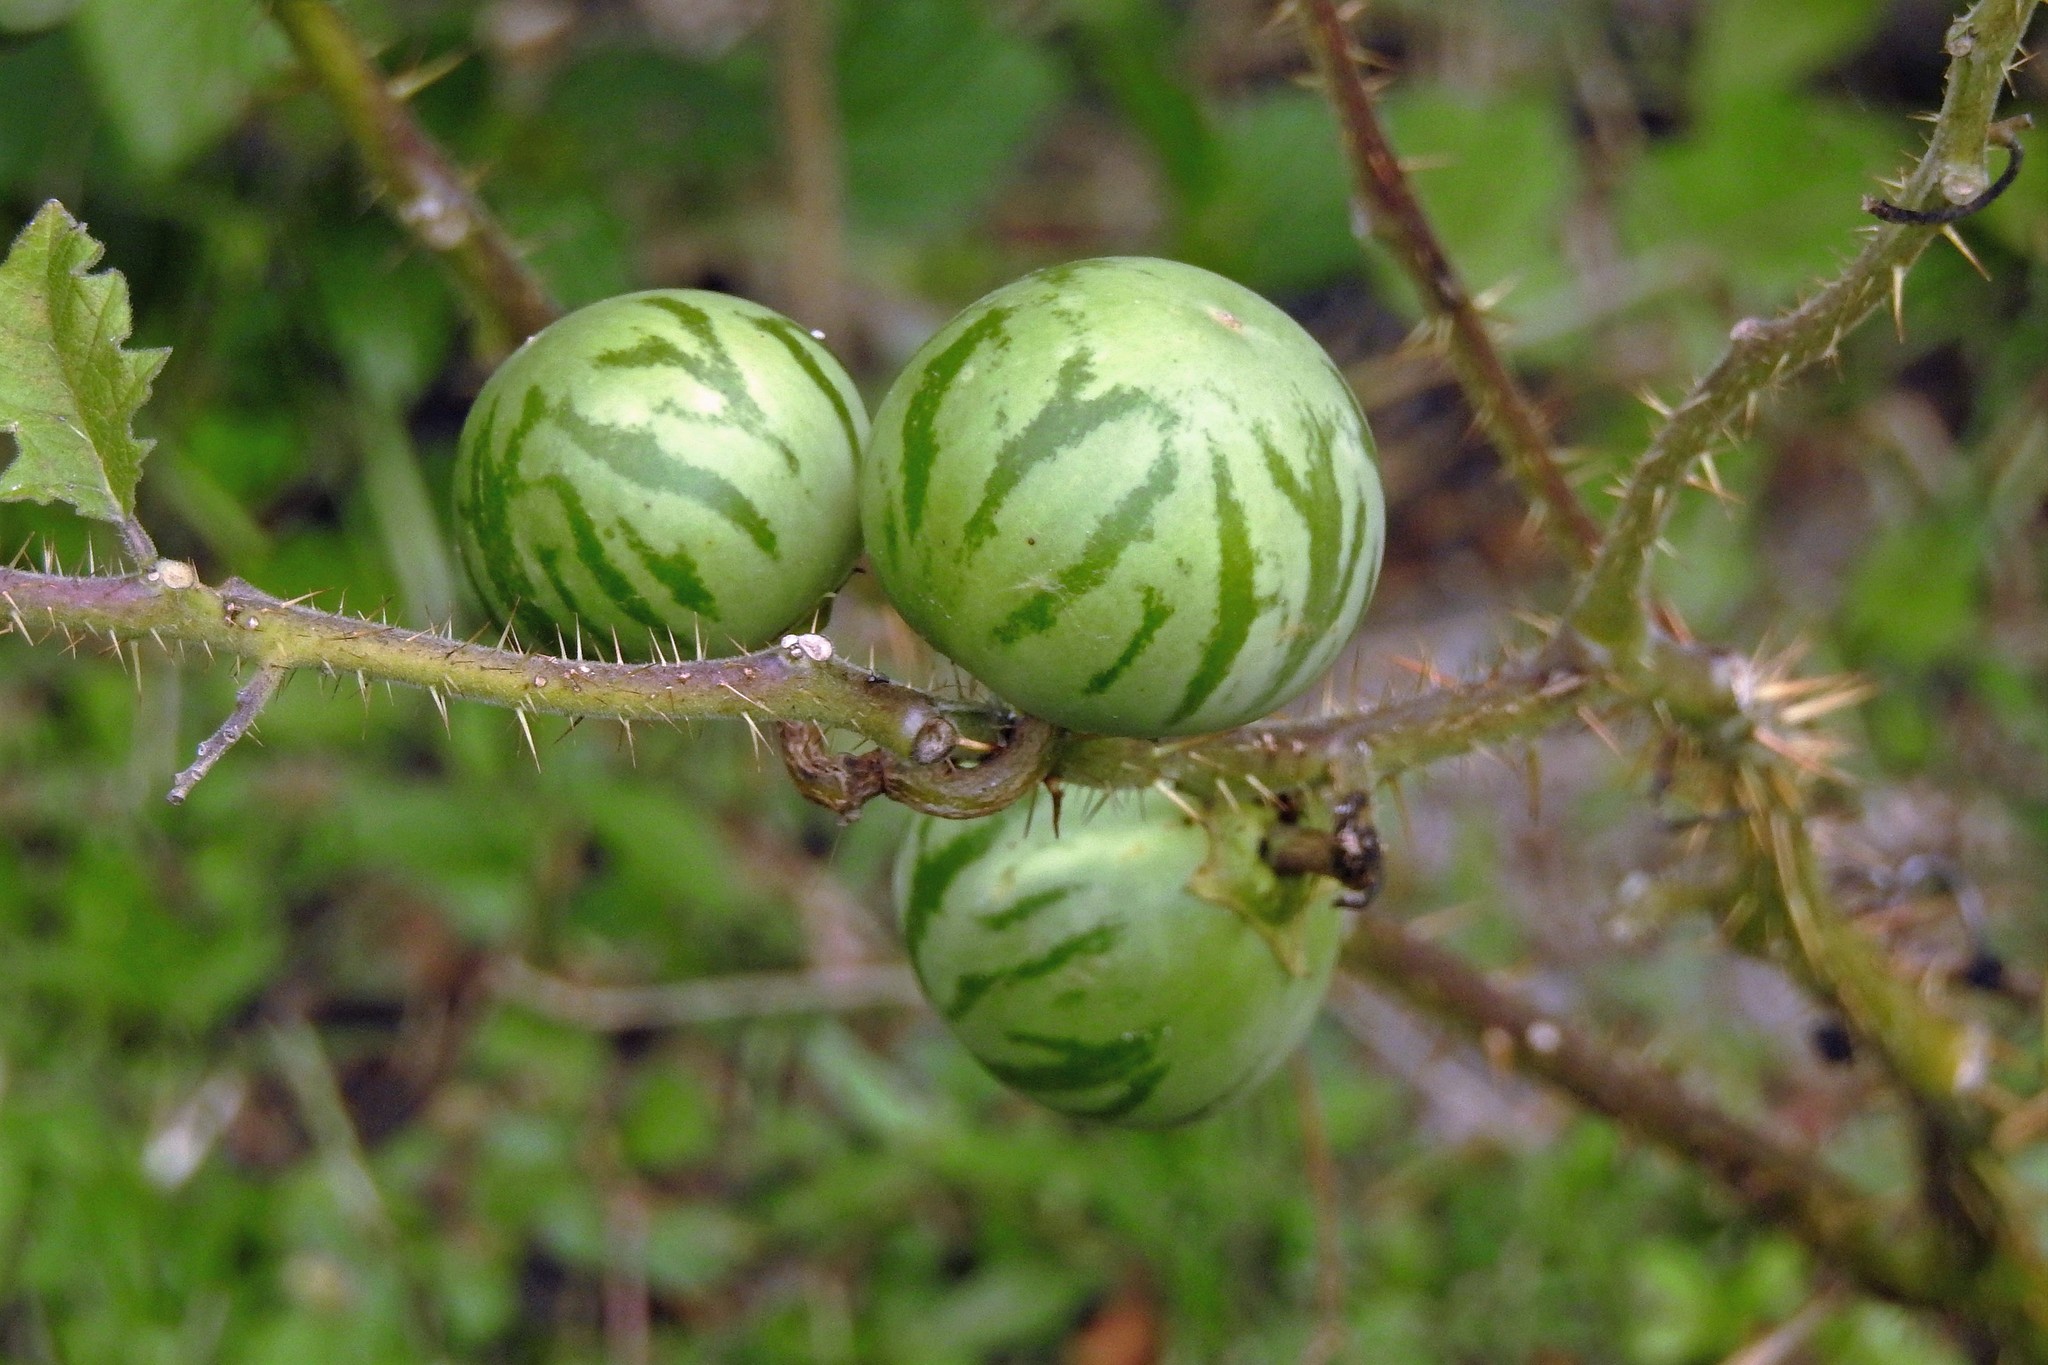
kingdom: Plantae
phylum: Tracheophyta
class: Magnoliopsida
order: Solanales
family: Solanaceae
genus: Solanum
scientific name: Solanum palinacanthum
